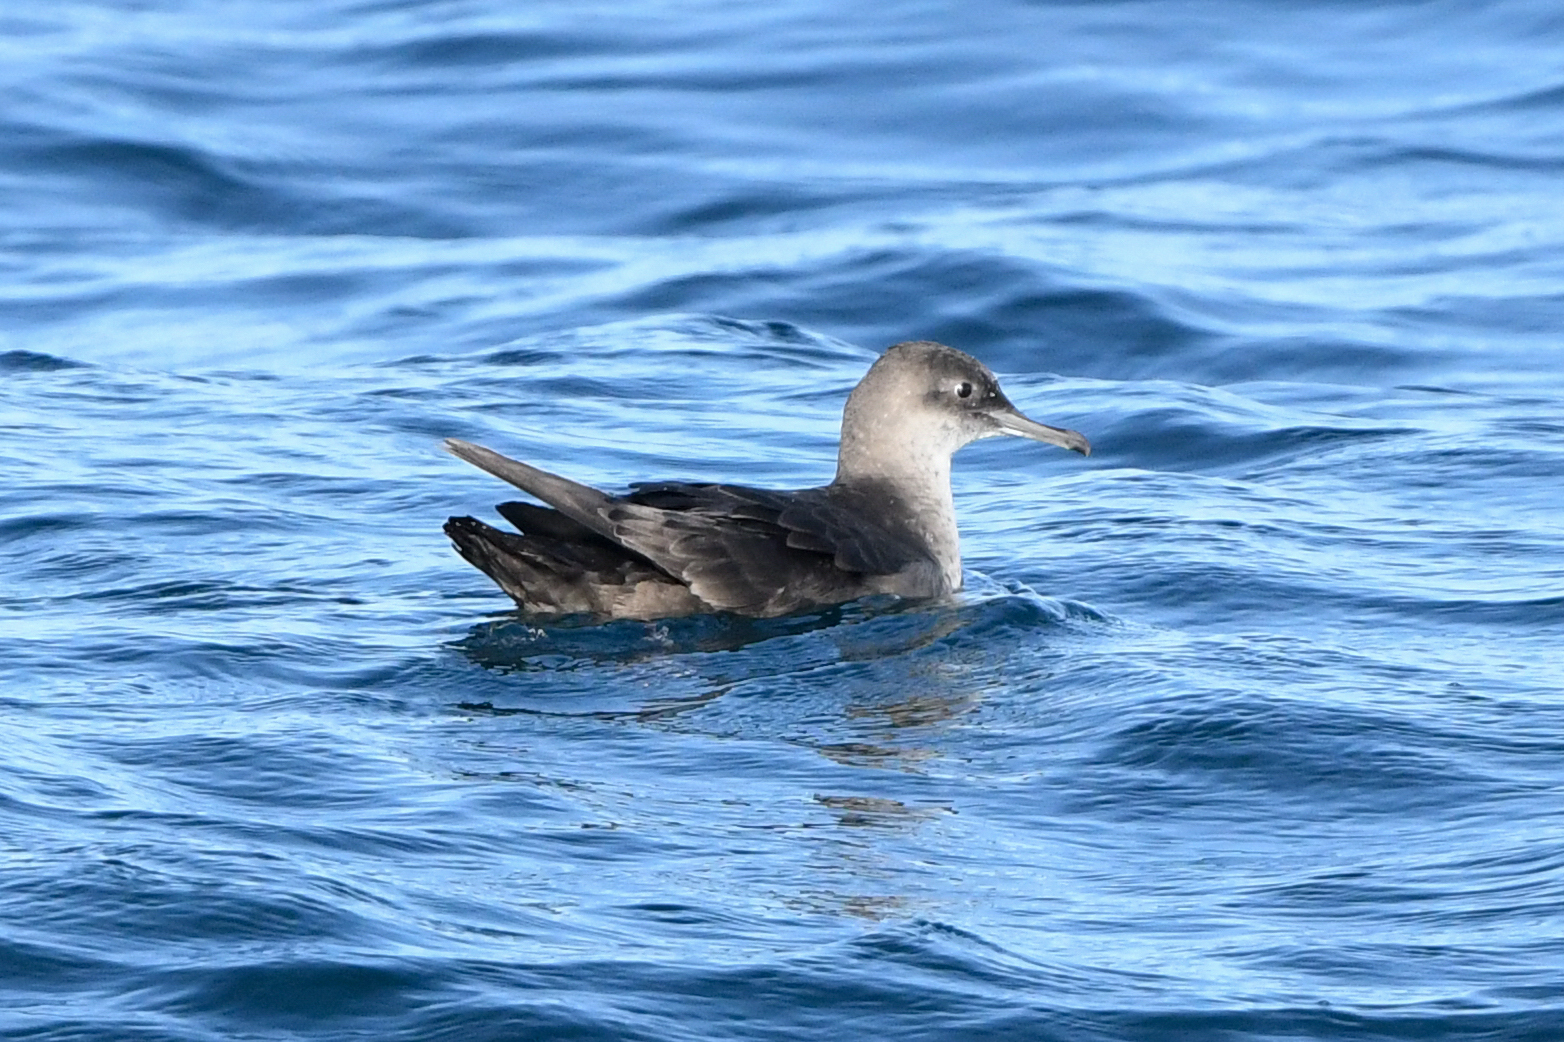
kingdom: Animalia
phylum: Chordata
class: Aves
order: Procellariiformes
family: Procellariidae
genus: Puffinus
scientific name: Puffinus mauretanicus
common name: Balearic shearwater
